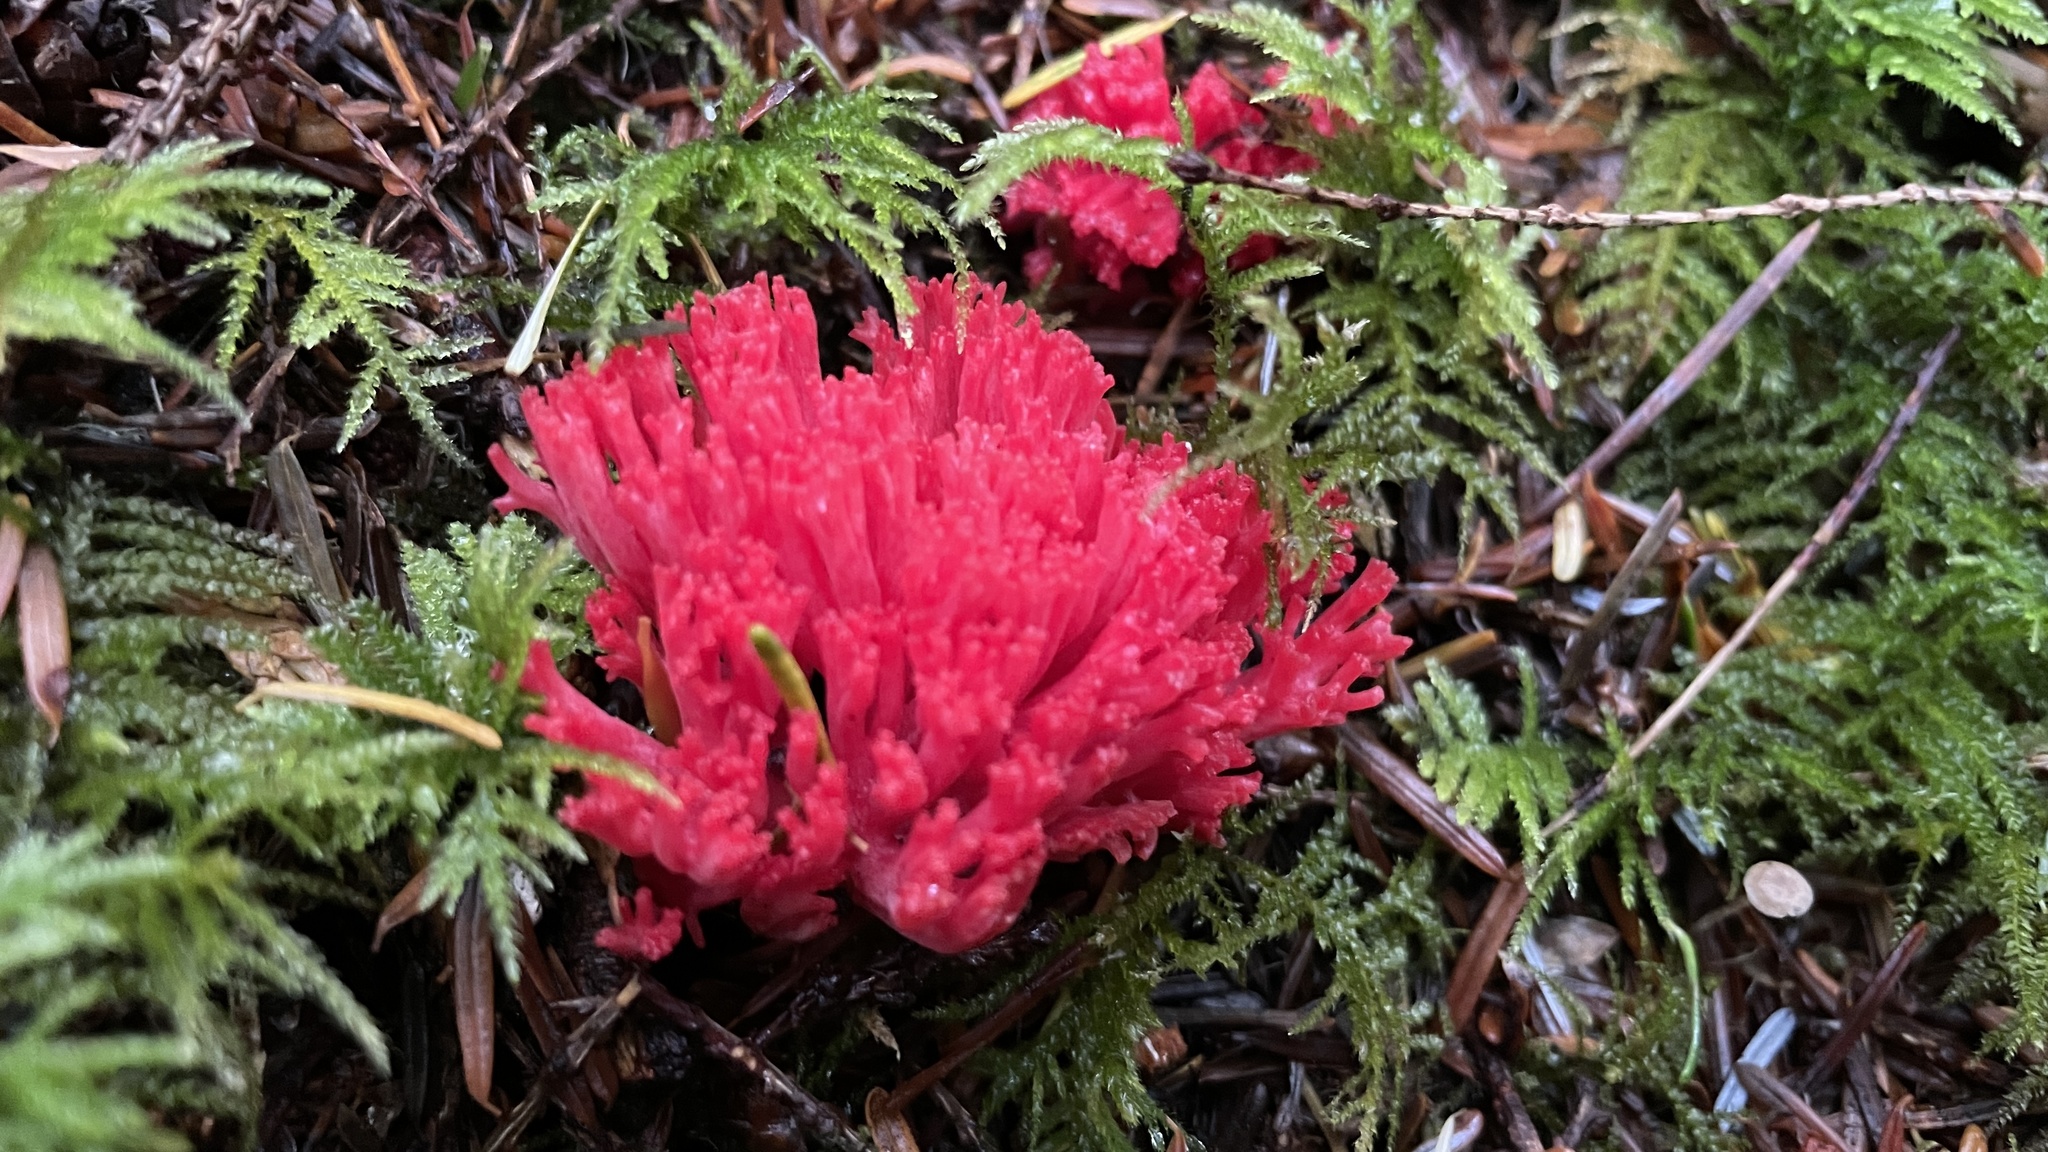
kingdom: Fungi
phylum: Basidiomycota
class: Agaricomycetes
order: Gomphales
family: Gomphaceae
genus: Ramaria
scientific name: Ramaria araiospora
